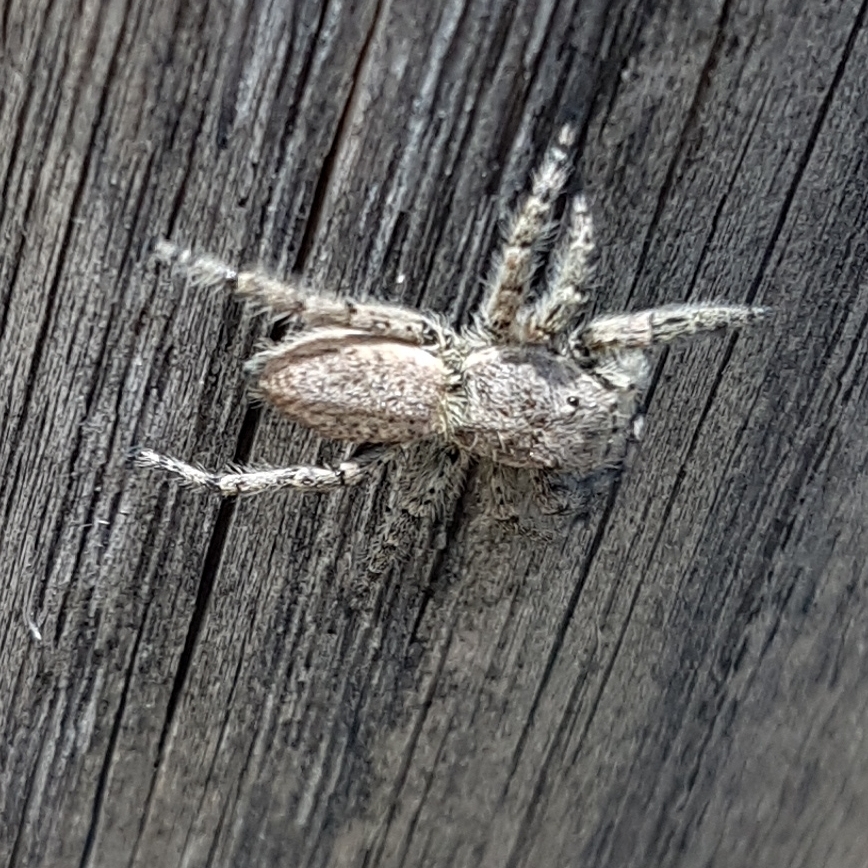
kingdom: Animalia
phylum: Arthropoda
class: Arachnida
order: Araneae
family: Salticidae
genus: Menemerus
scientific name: Menemerus taeniatus
